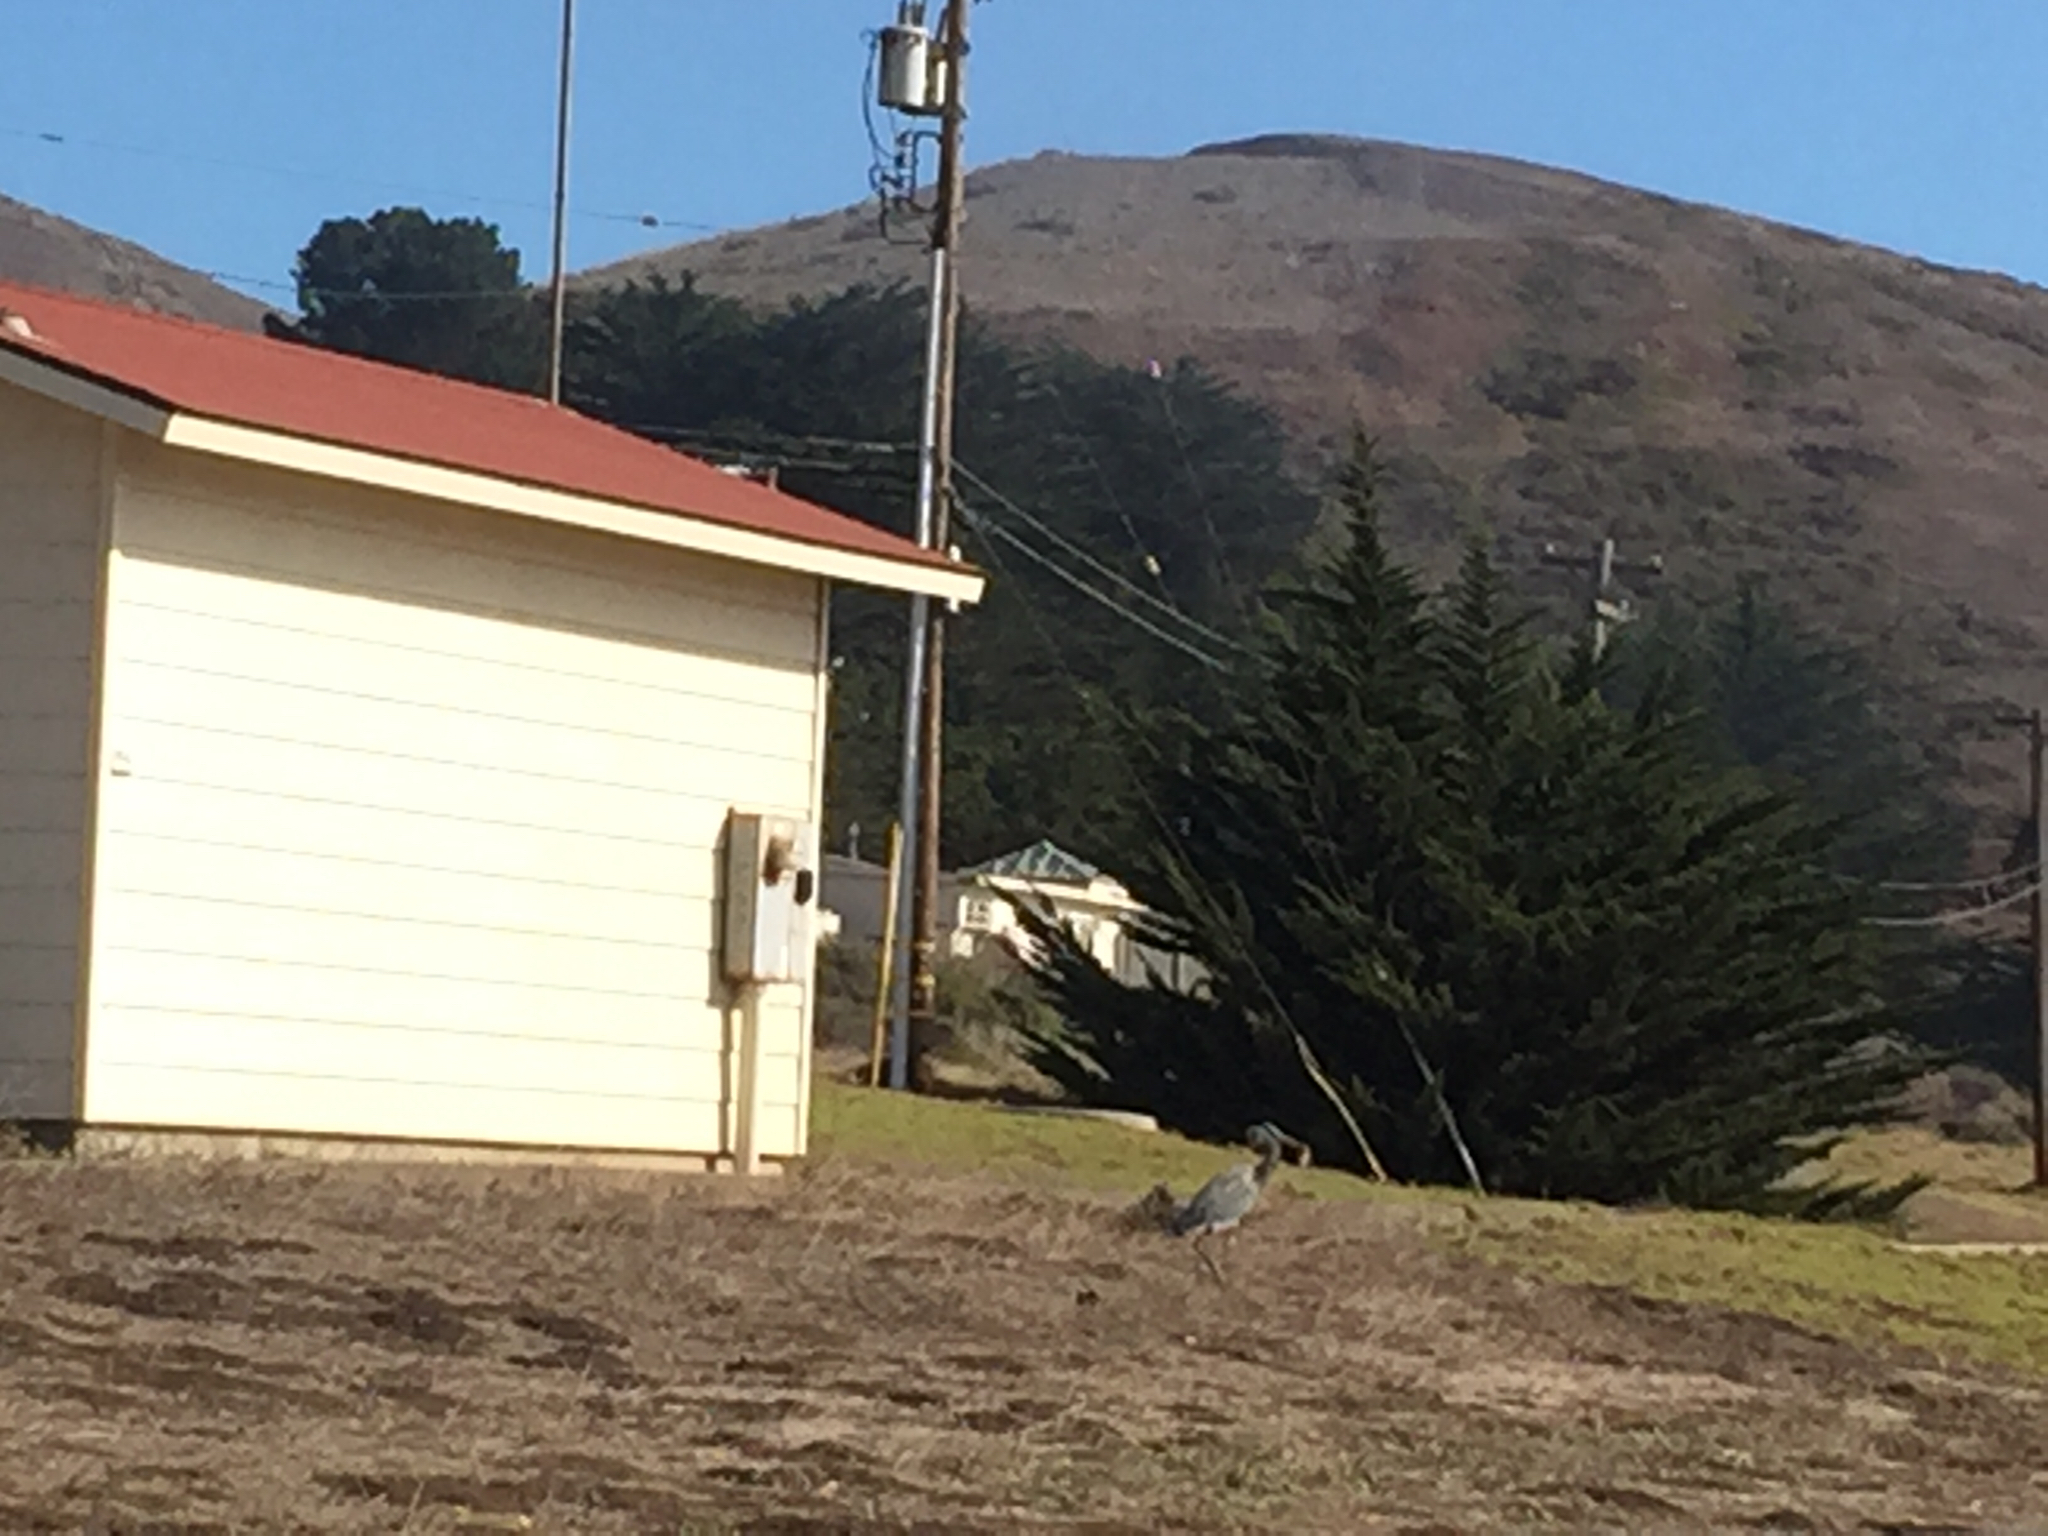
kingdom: Animalia
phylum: Chordata
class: Aves
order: Pelecaniformes
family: Ardeidae
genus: Ardea
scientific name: Ardea herodias
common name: Great blue heron
